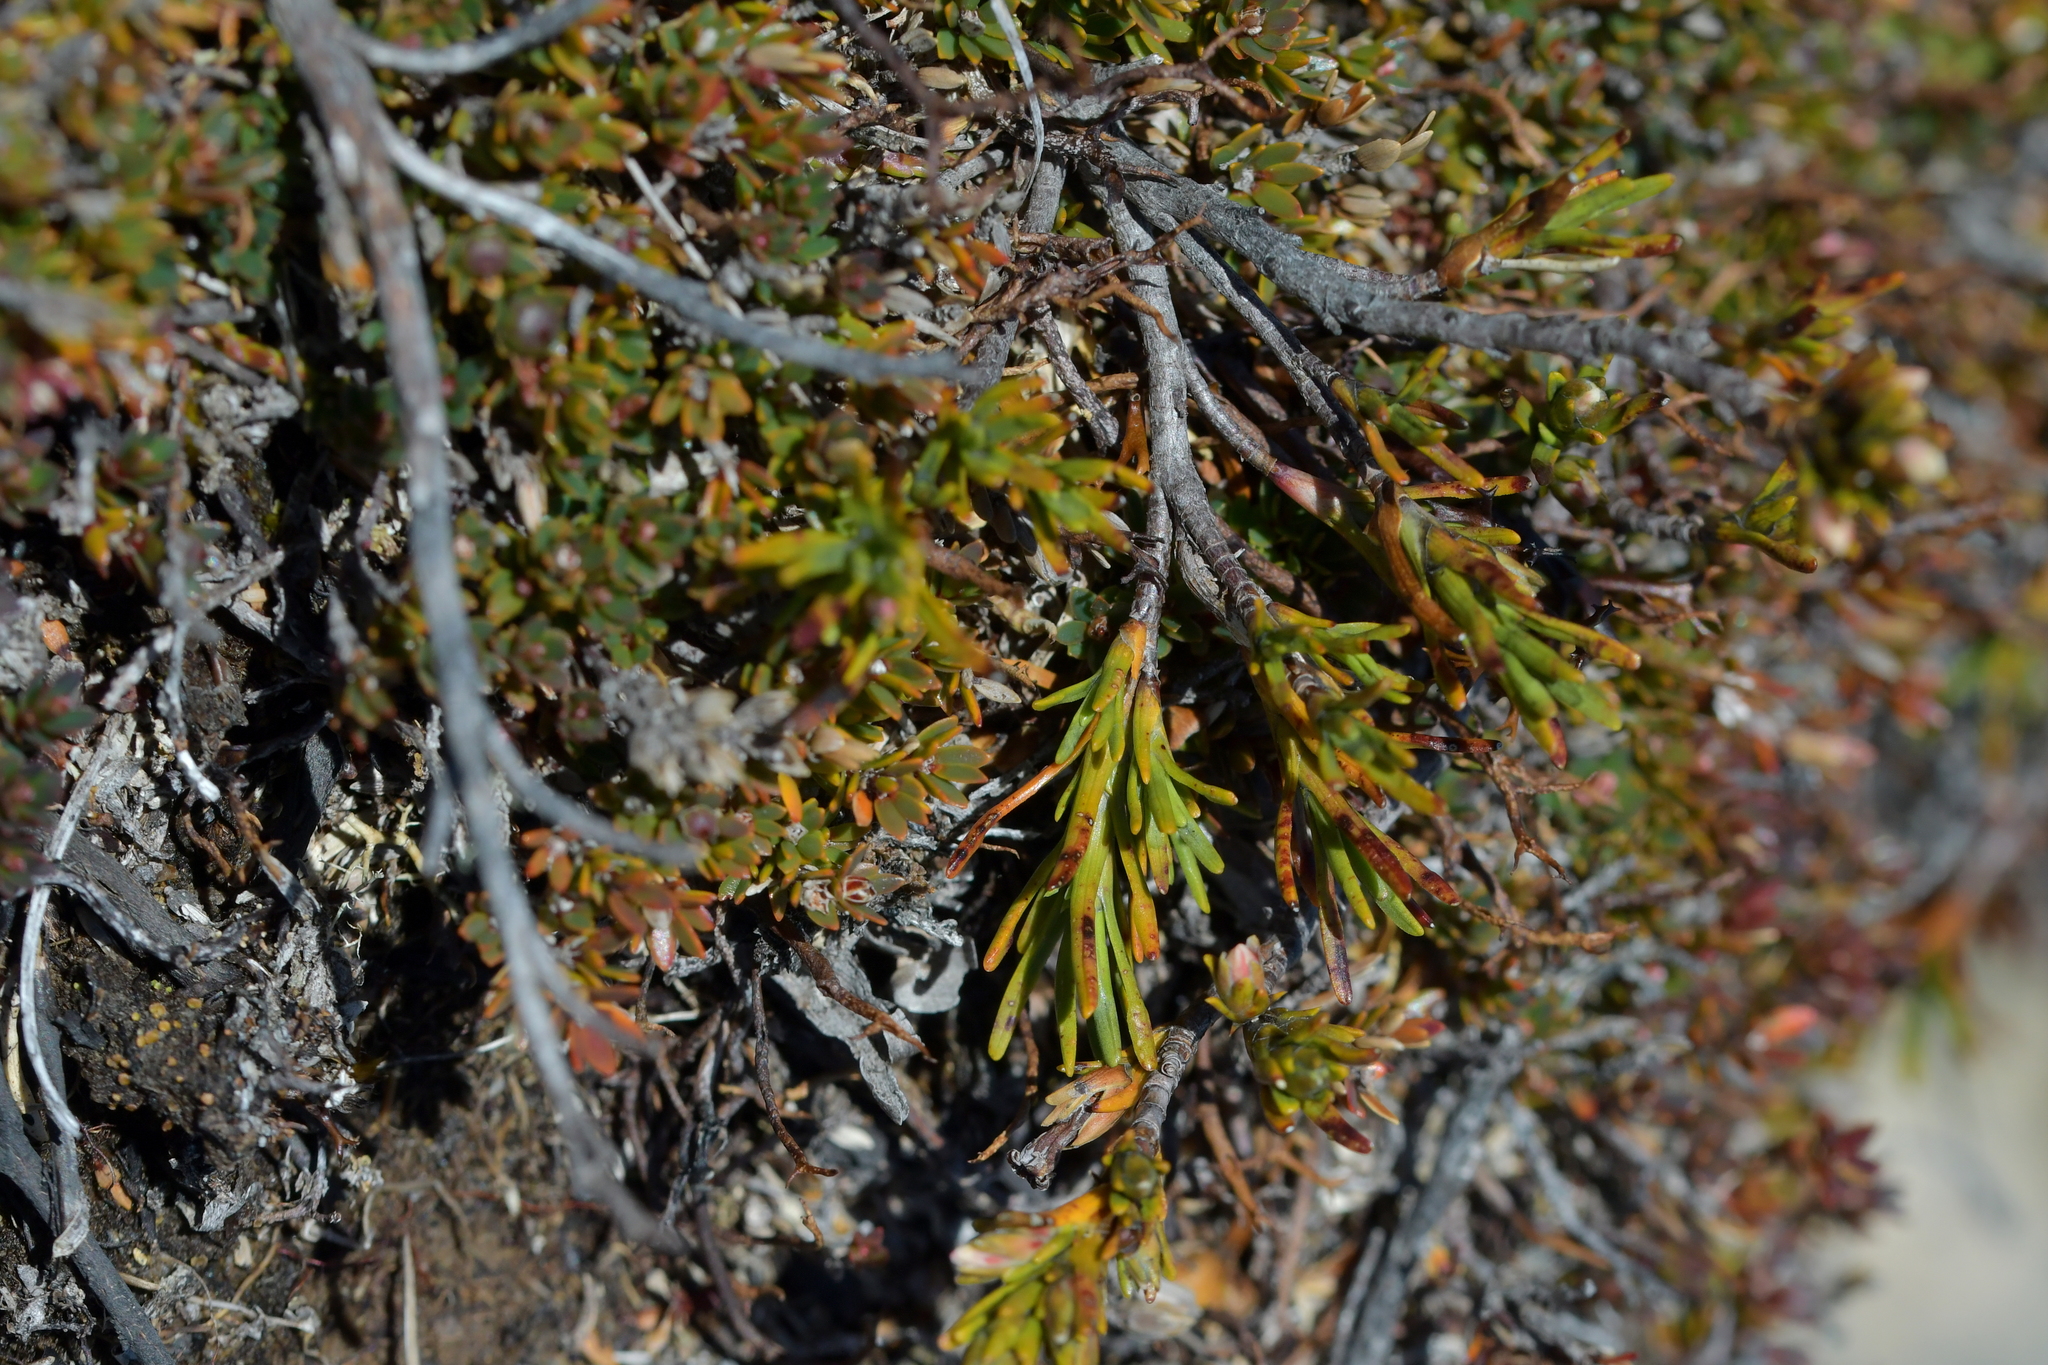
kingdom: Plantae
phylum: Tracheophyta
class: Magnoliopsida
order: Ericales
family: Ericaceae
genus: Dracophyllum
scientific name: Dracophyllum pronum
